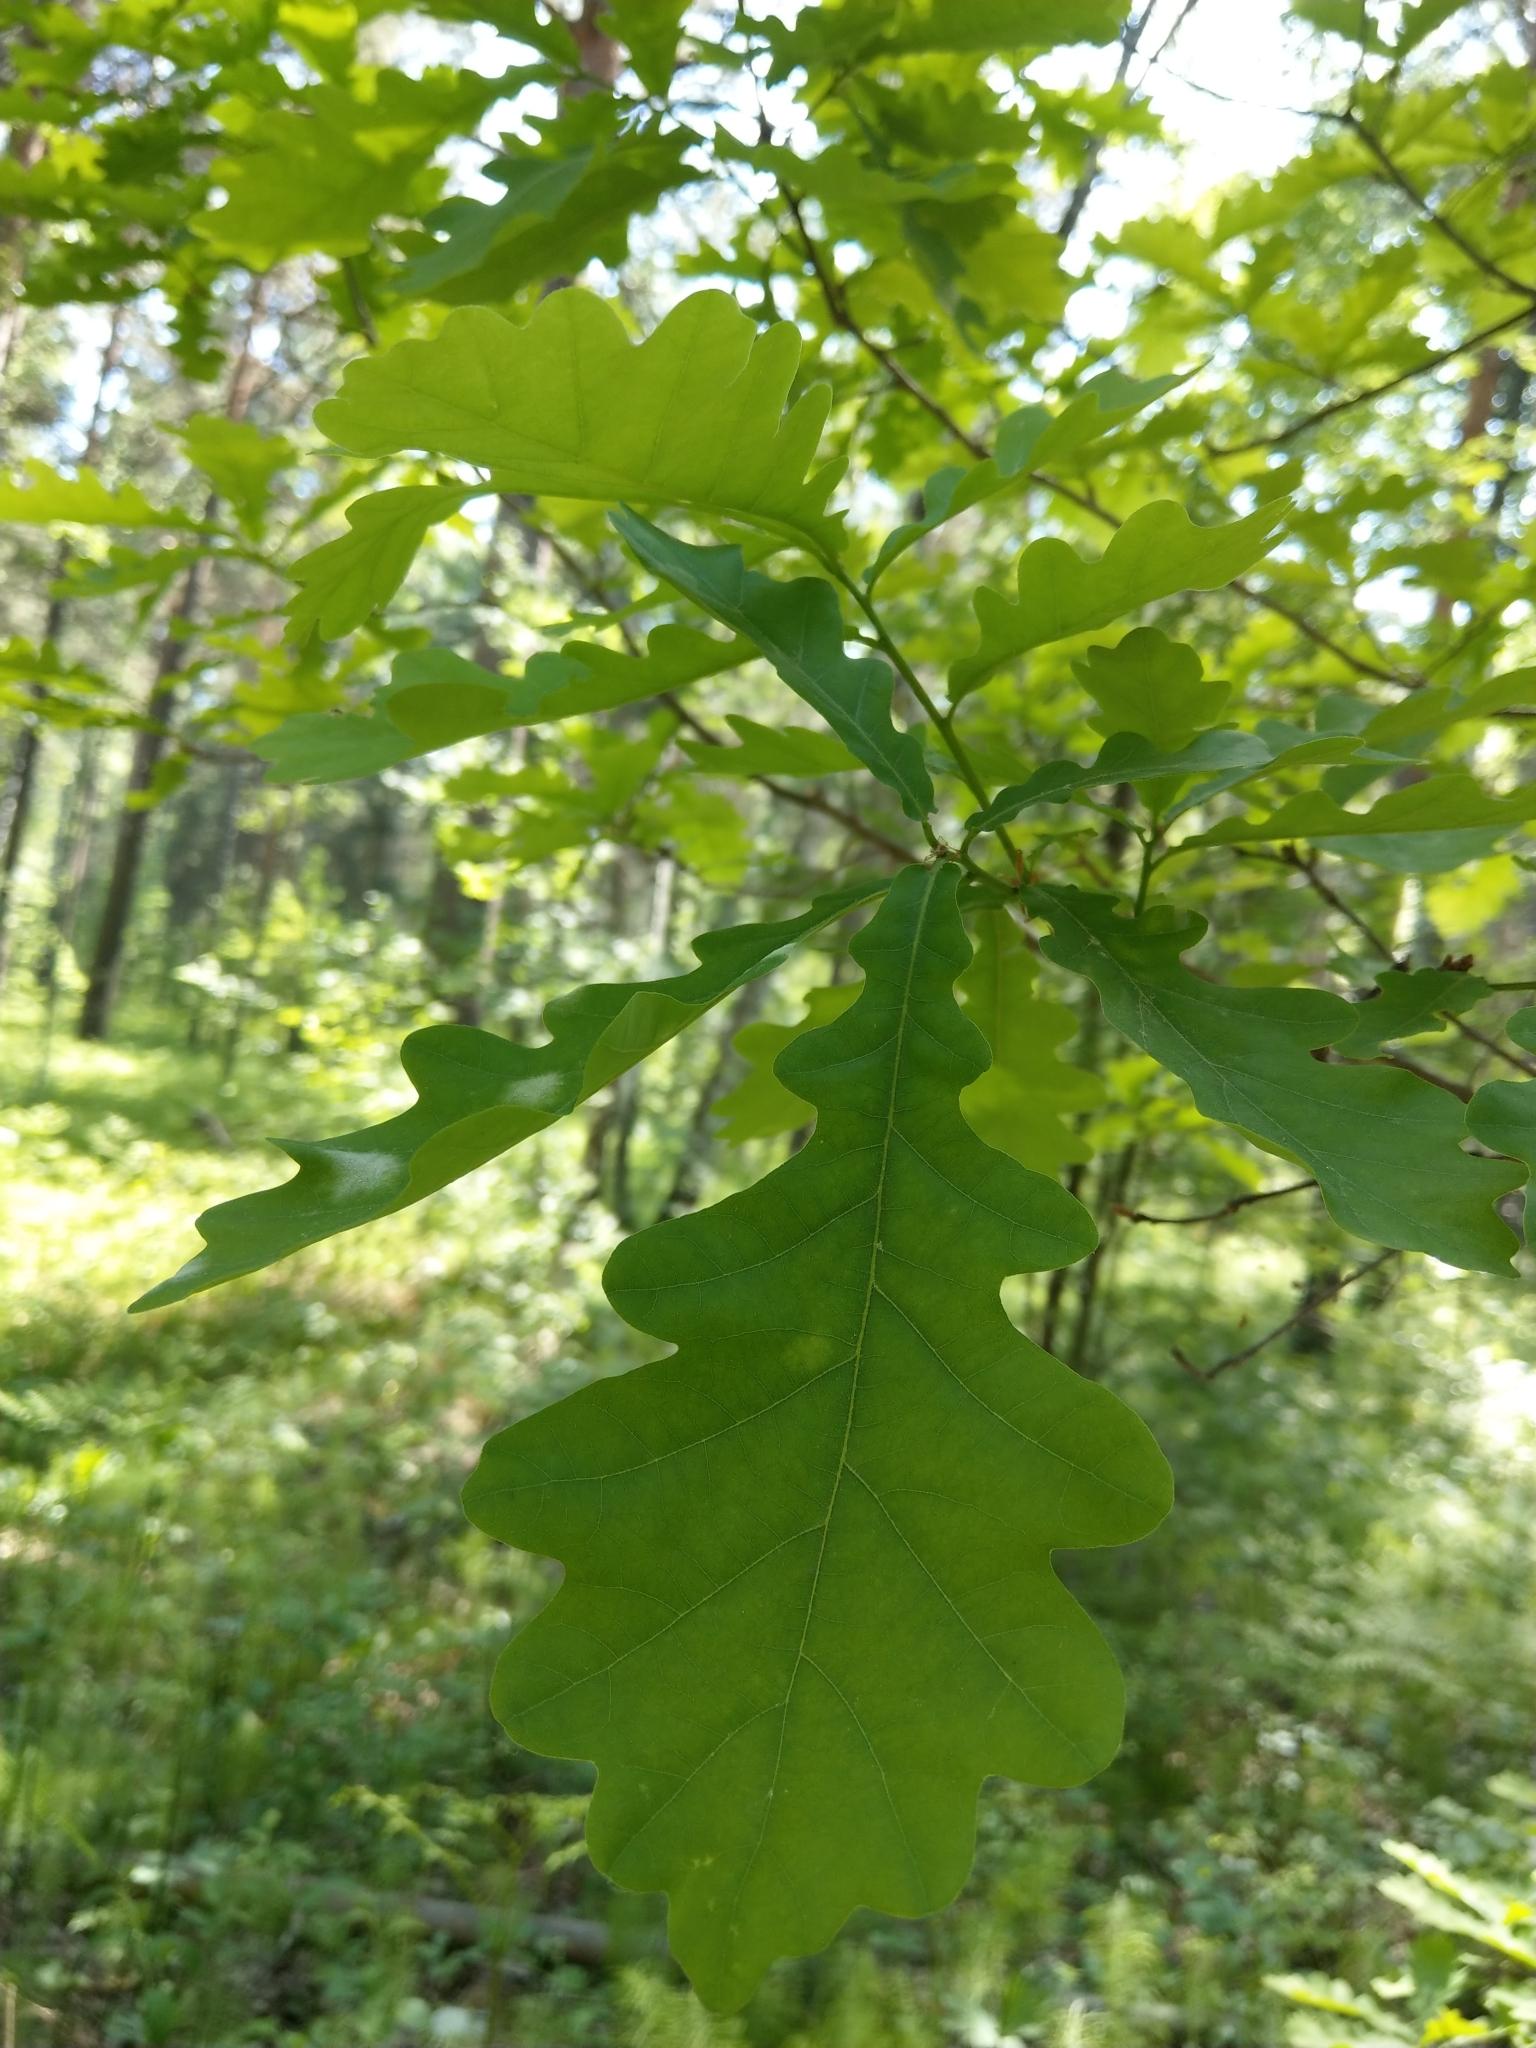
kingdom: Plantae
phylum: Tracheophyta
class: Magnoliopsida
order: Fagales
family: Fagaceae
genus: Quercus
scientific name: Quercus robur
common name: Pedunculate oak
